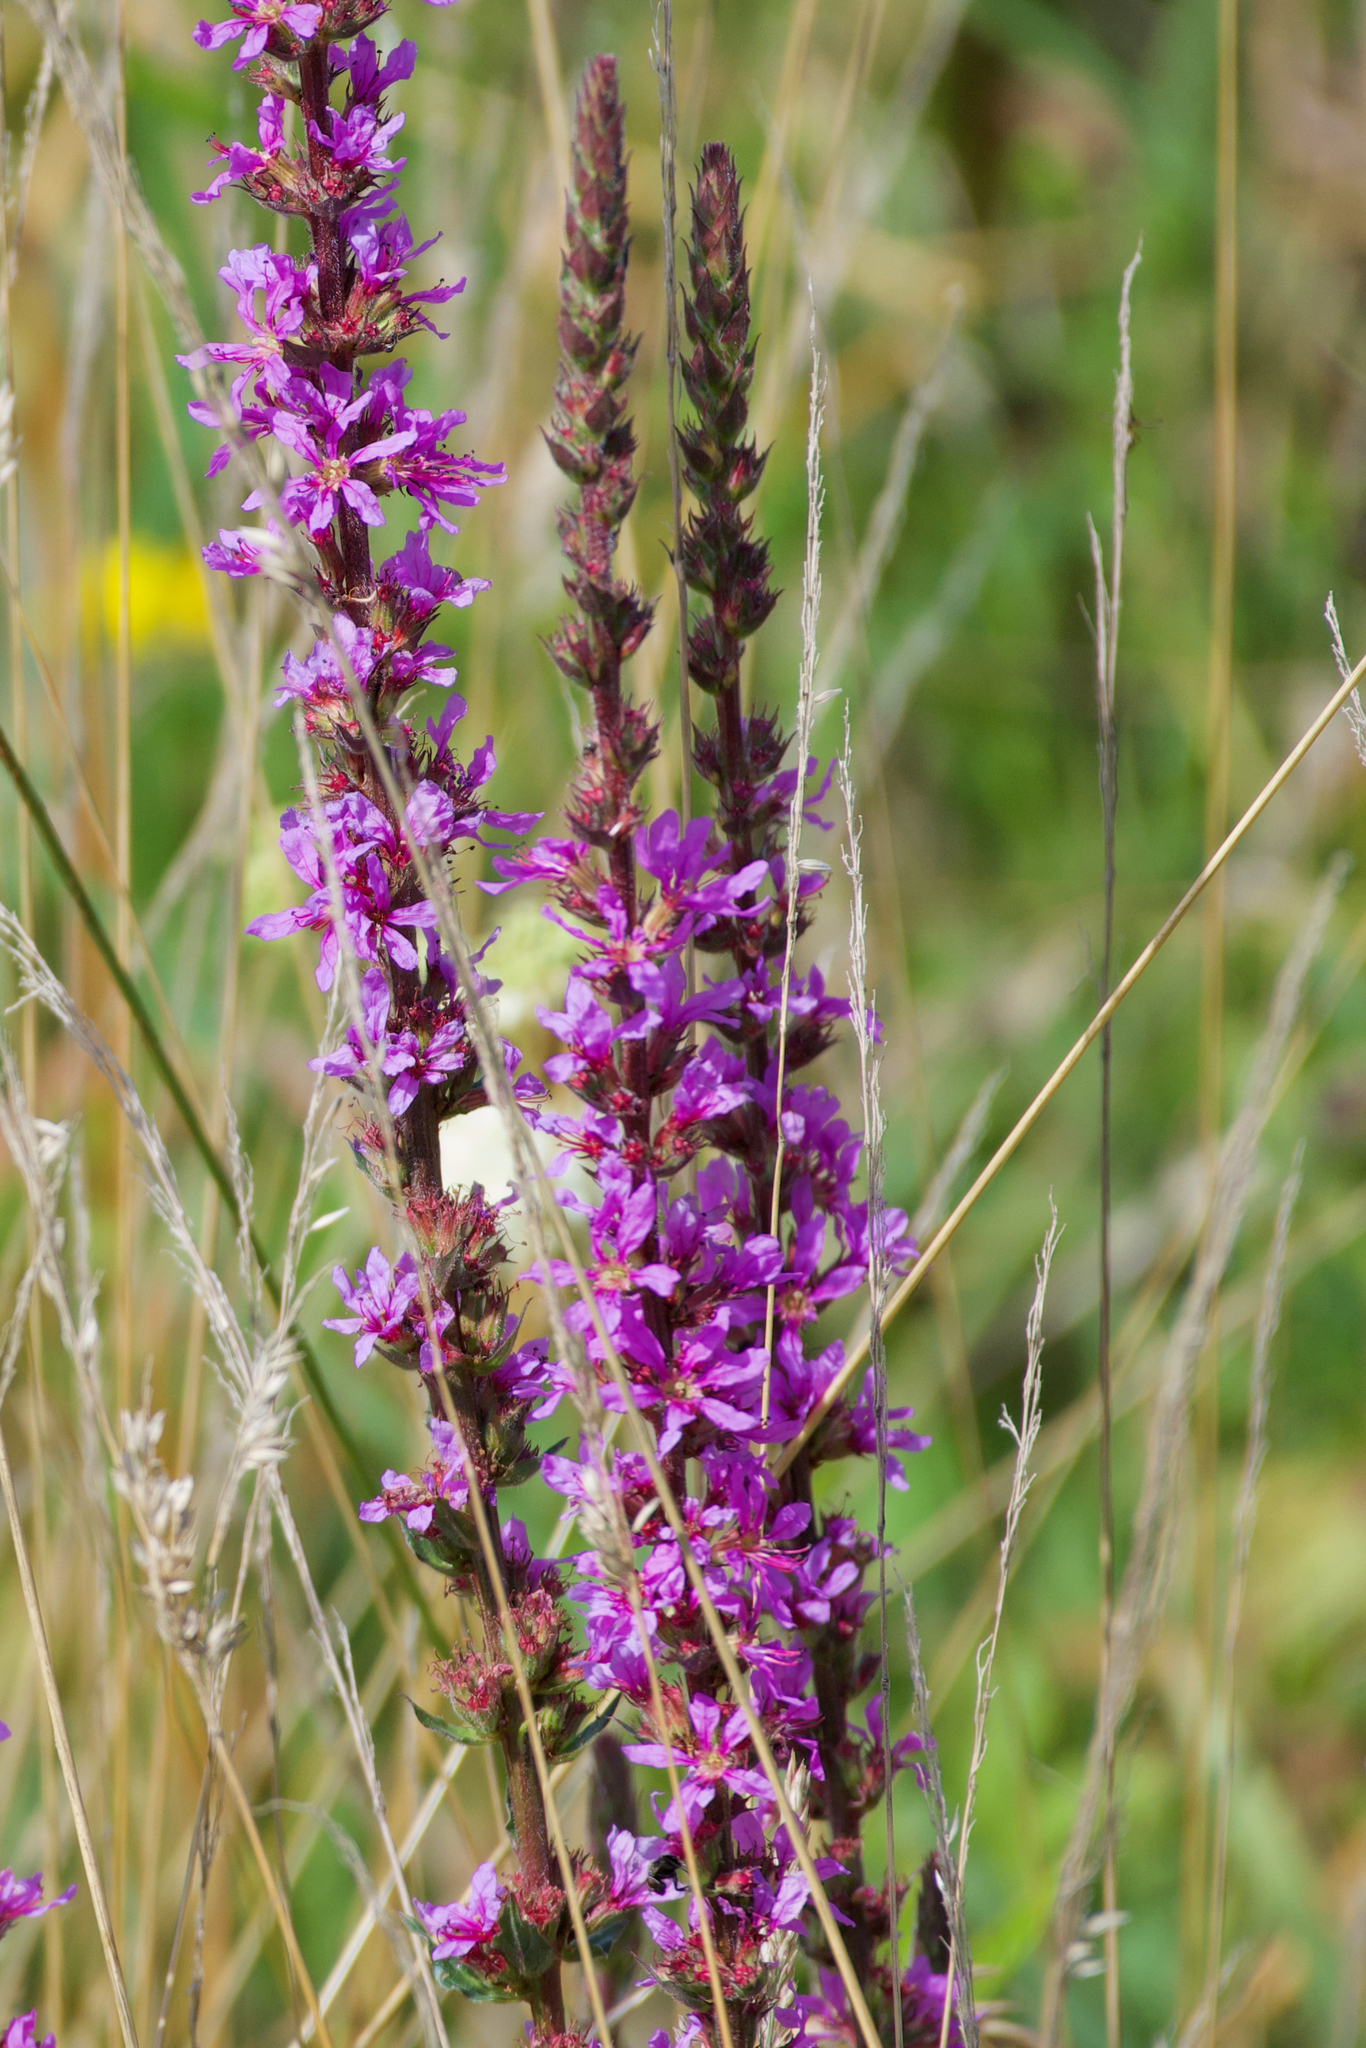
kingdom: Plantae
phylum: Tracheophyta
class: Magnoliopsida
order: Myrtales
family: Lythraceae
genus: Lythrum
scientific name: Lythrum salicaria
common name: Purple loosestrife
